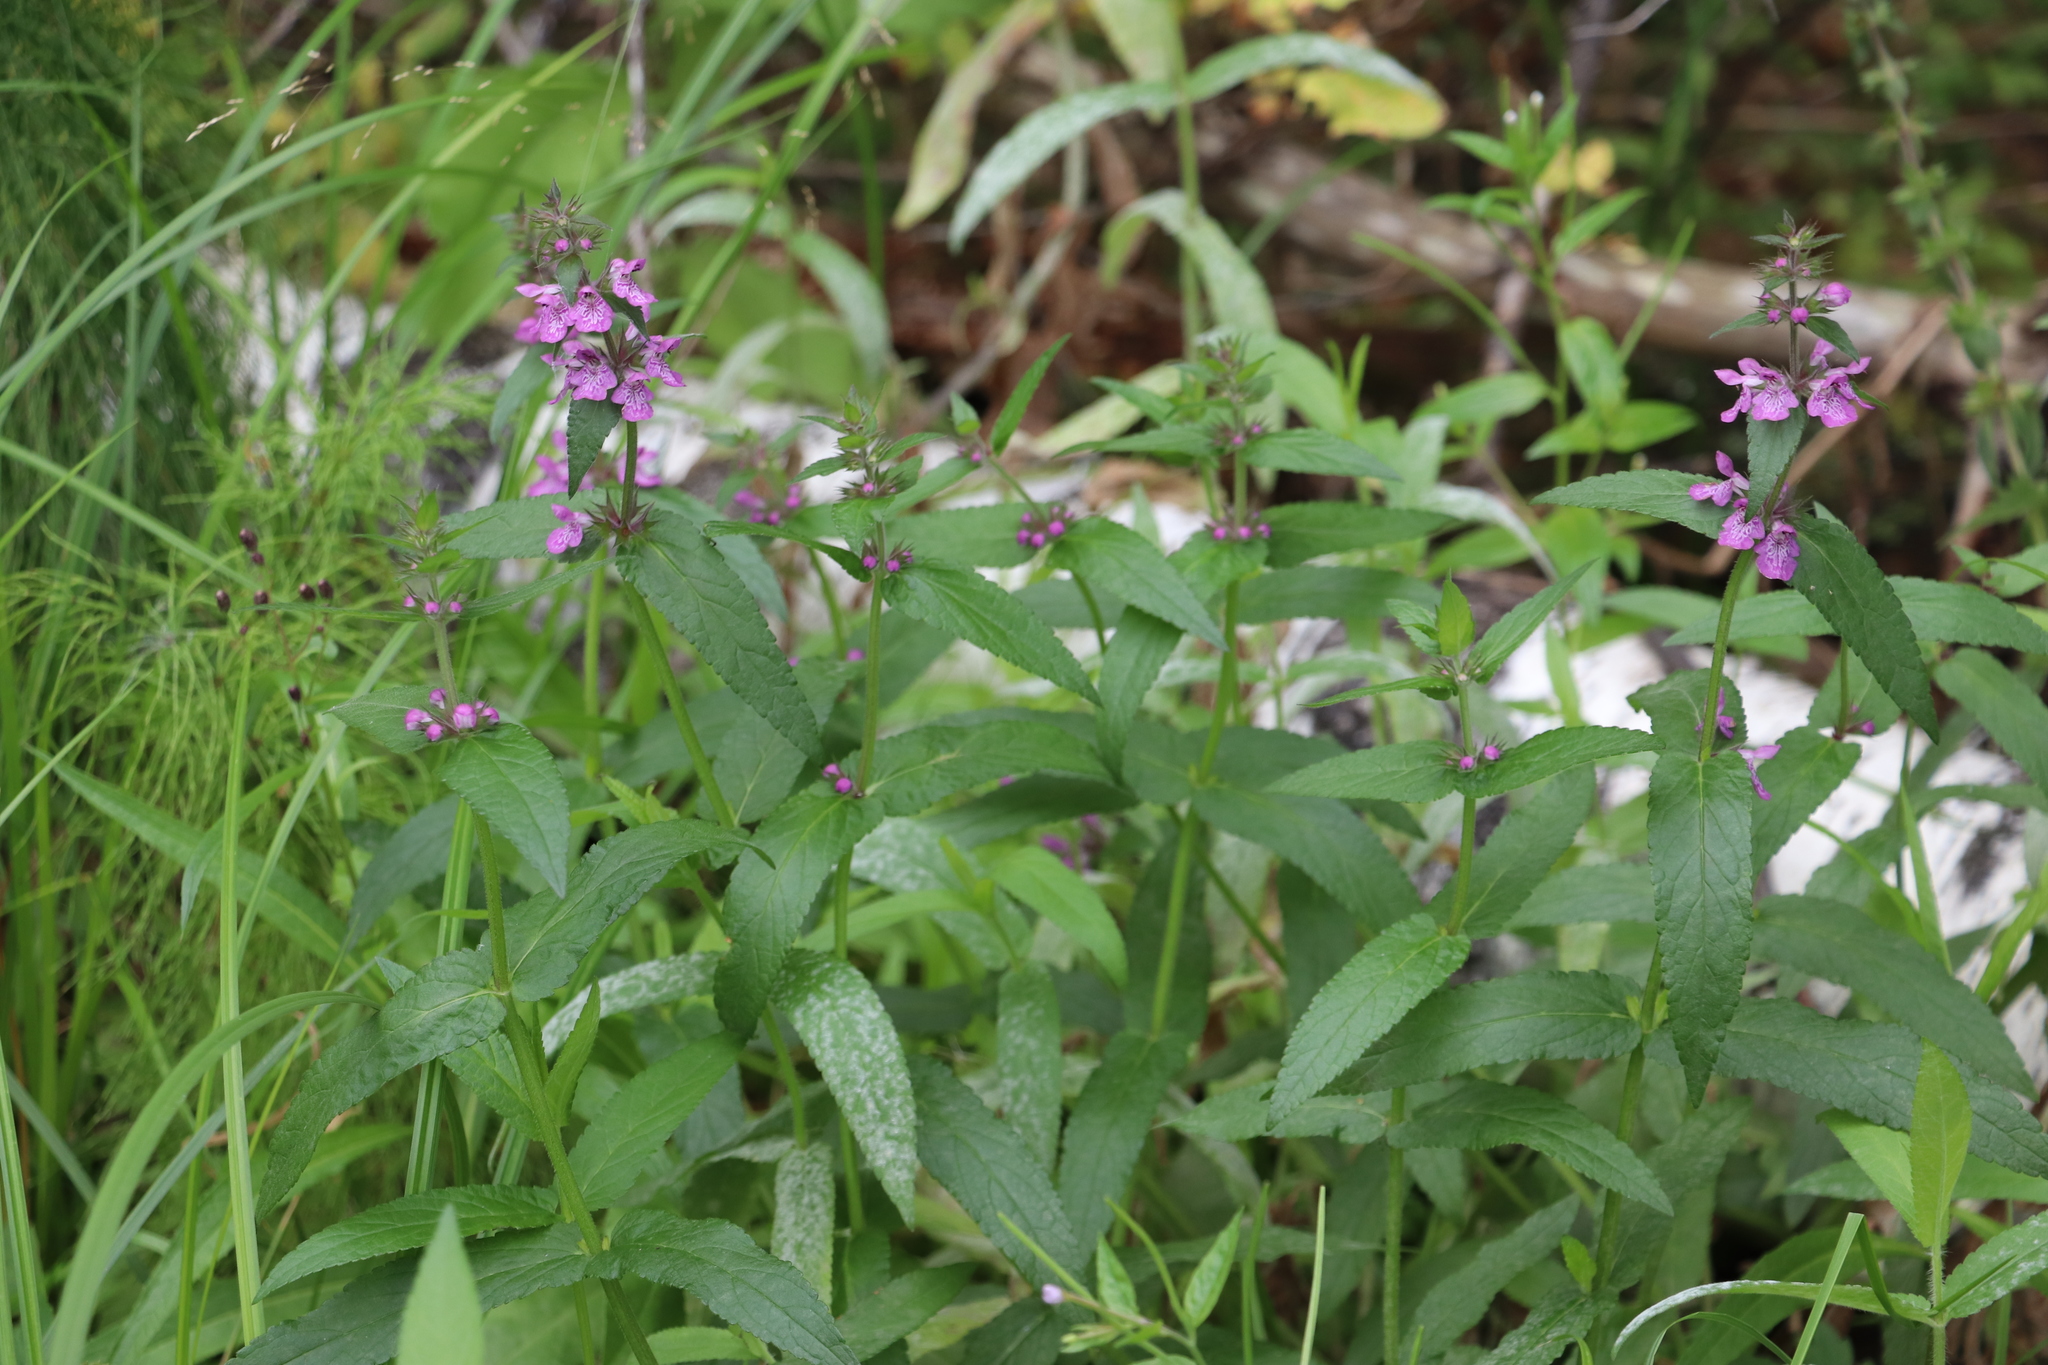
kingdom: Plantae
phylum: Tracheophyta
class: Magnoliopsida
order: Lamiales
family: Lamiaceae
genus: Stachys
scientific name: Stachys palustris
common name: Marsh woundwort
